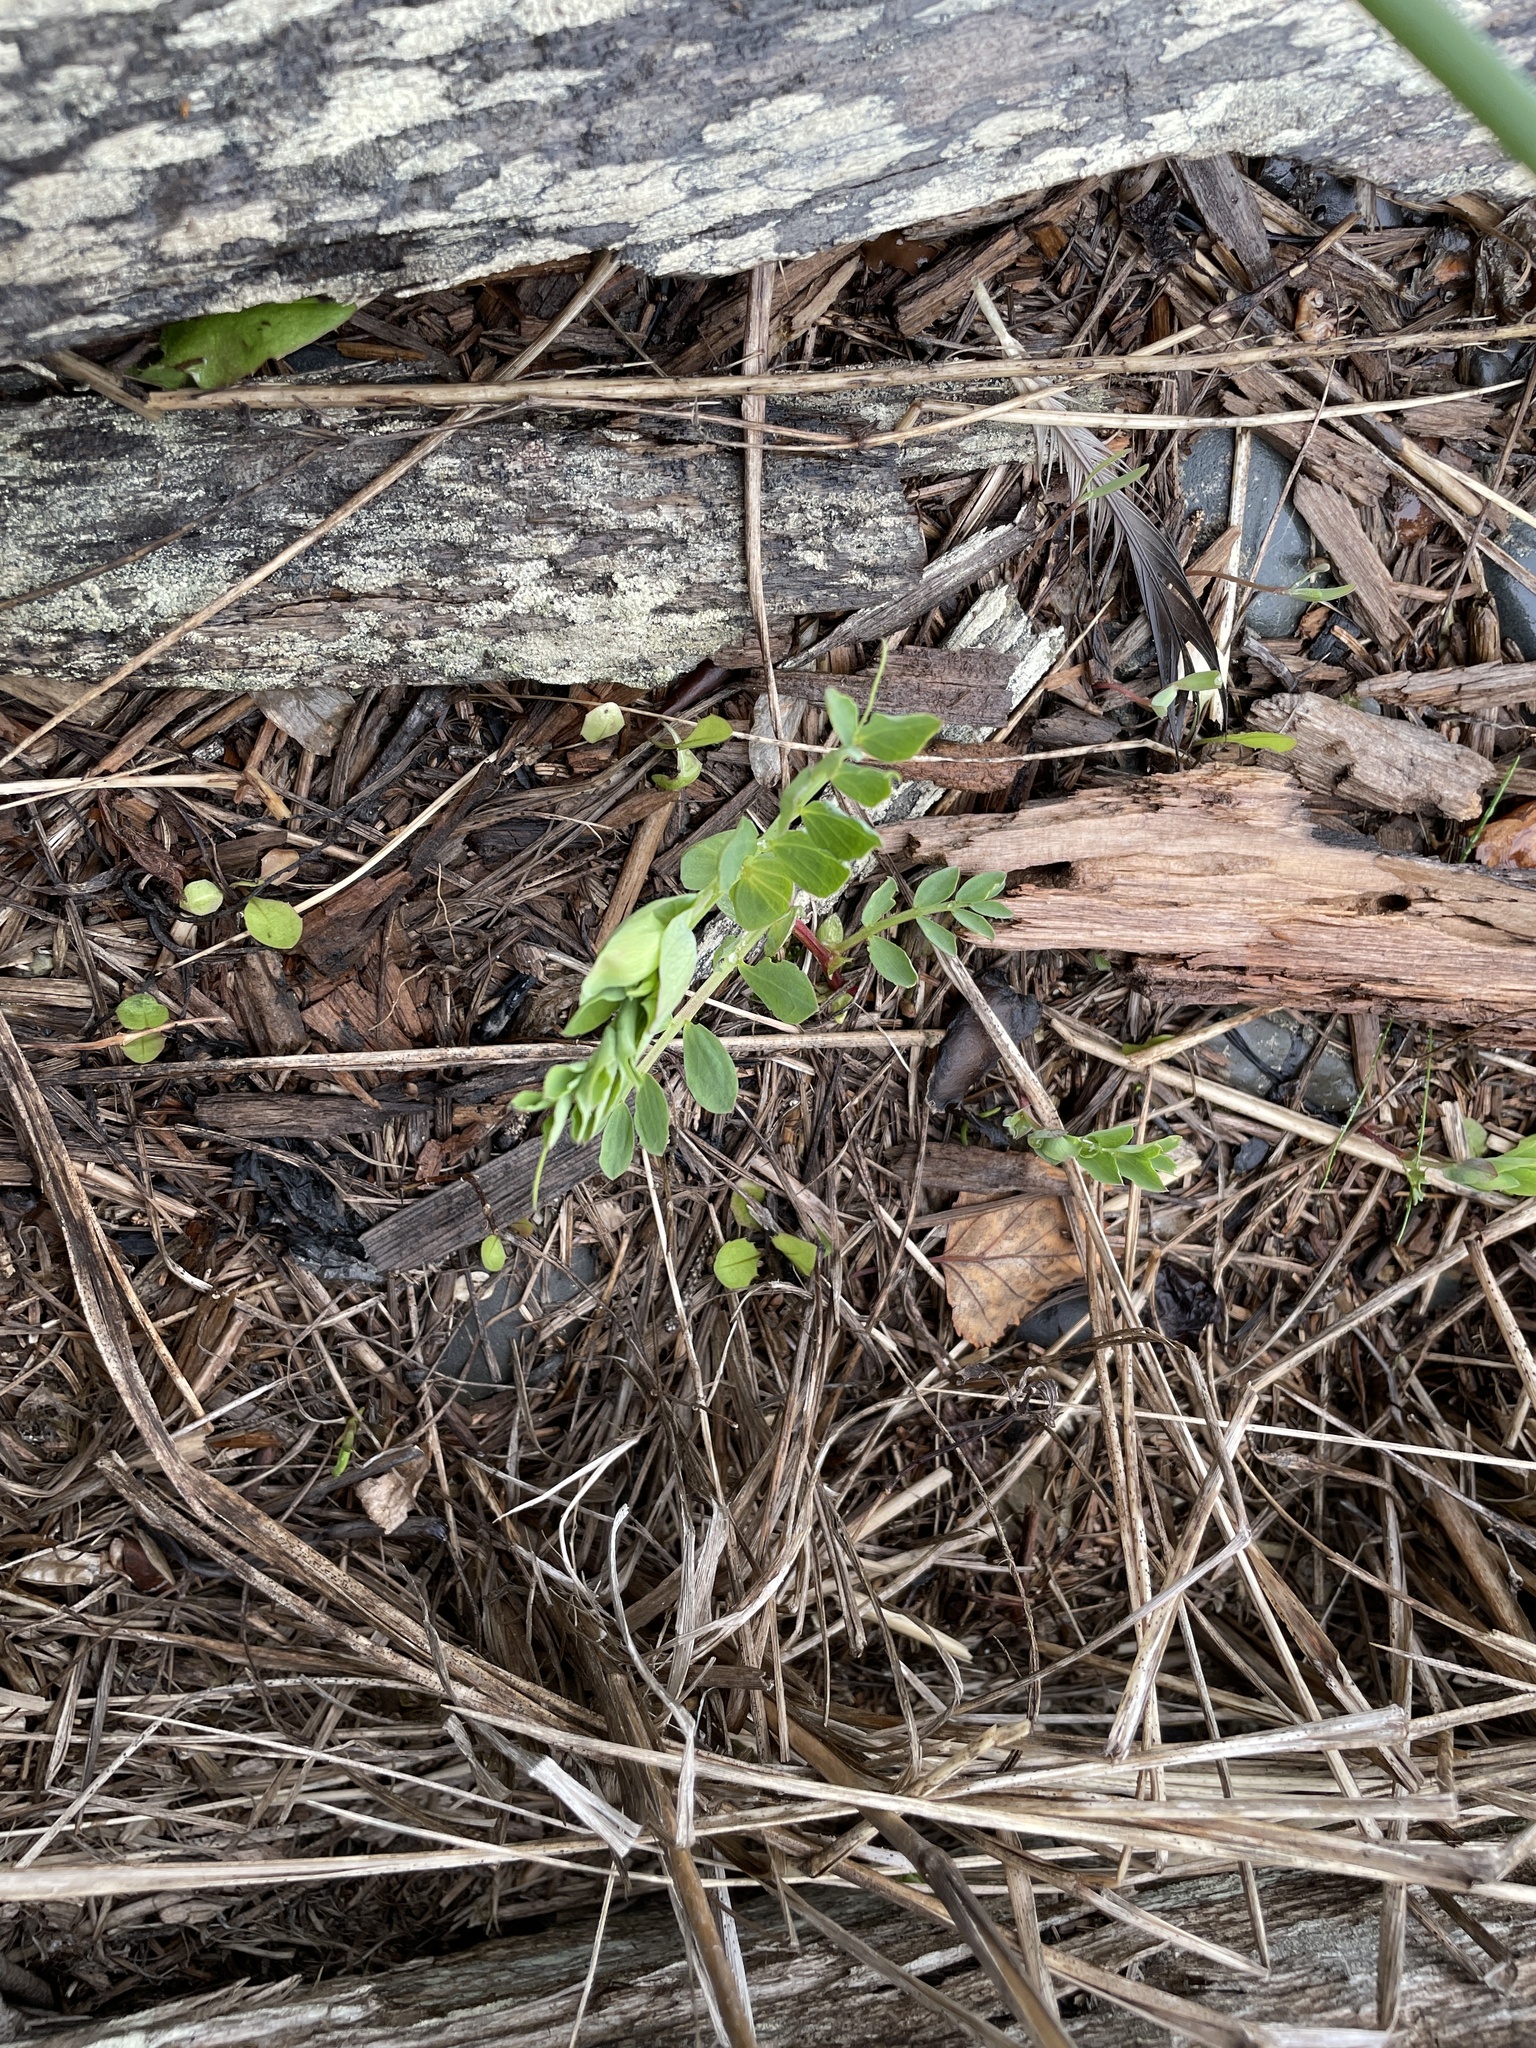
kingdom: Plantae
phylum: Tracheophyta
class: Magnoliopsida
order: Fabales
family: Fabaceae
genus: Lathyrus
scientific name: Lathyrus japonicus
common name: Sea pea
